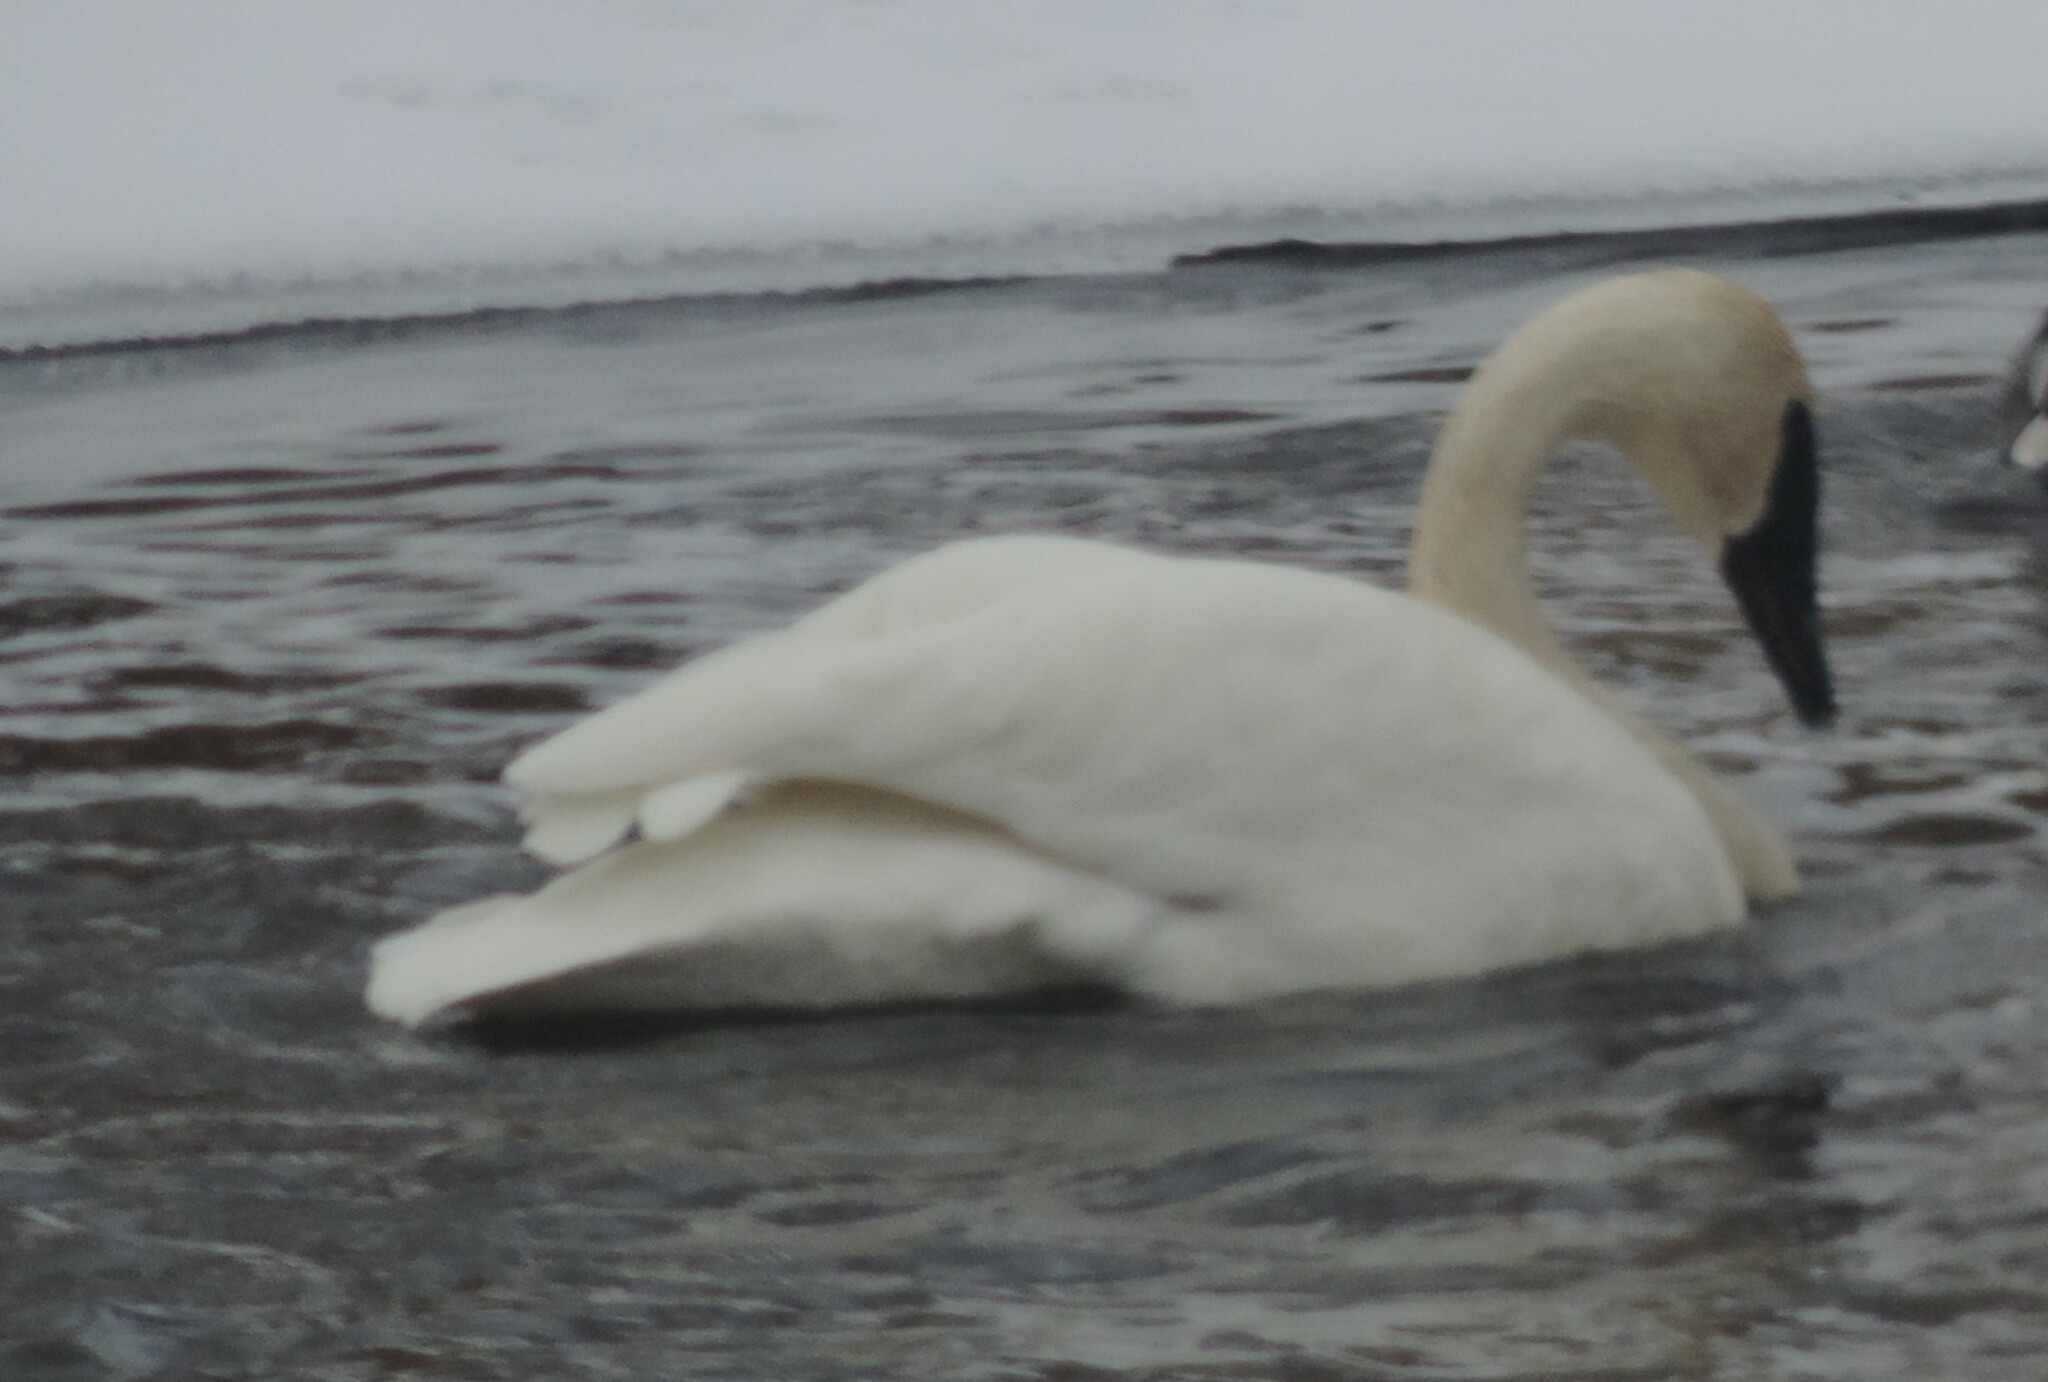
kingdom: Animalia
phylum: Chordata
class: Aves
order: Anseriformes
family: Anatidae
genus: Cygnus
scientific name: Cygnus buccinator
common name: Trumpeter swan
